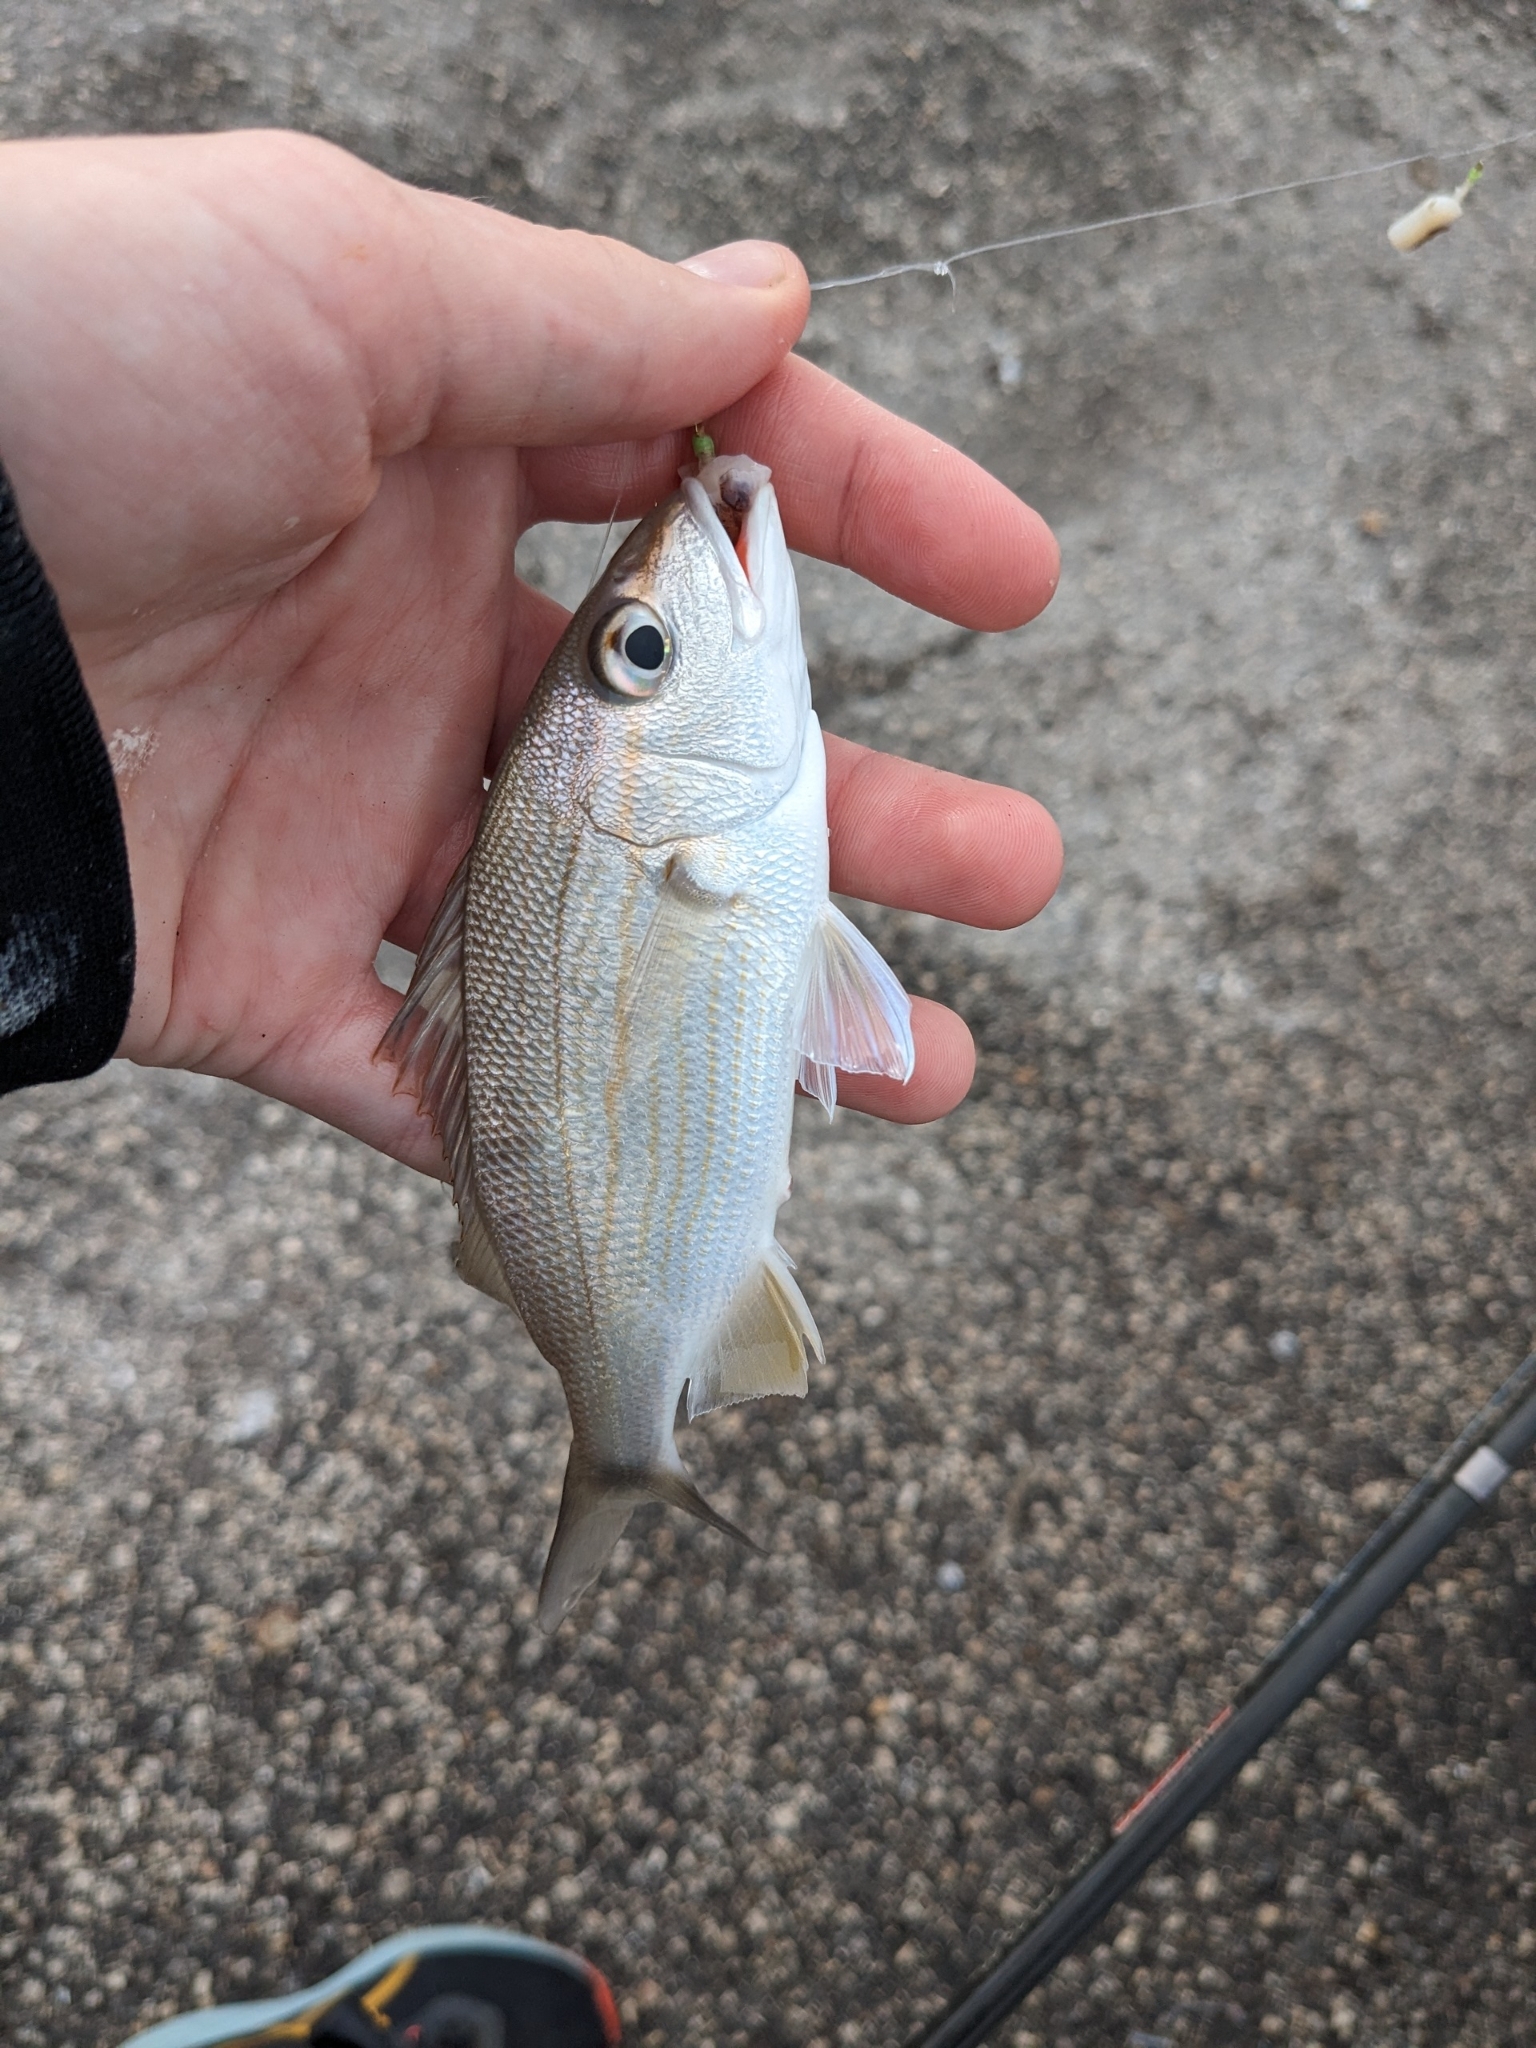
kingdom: Animalia
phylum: Chordata
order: Perciformes
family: Haemulidae
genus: Haemulon
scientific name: Haemulon aurolineatum
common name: Tomtate
